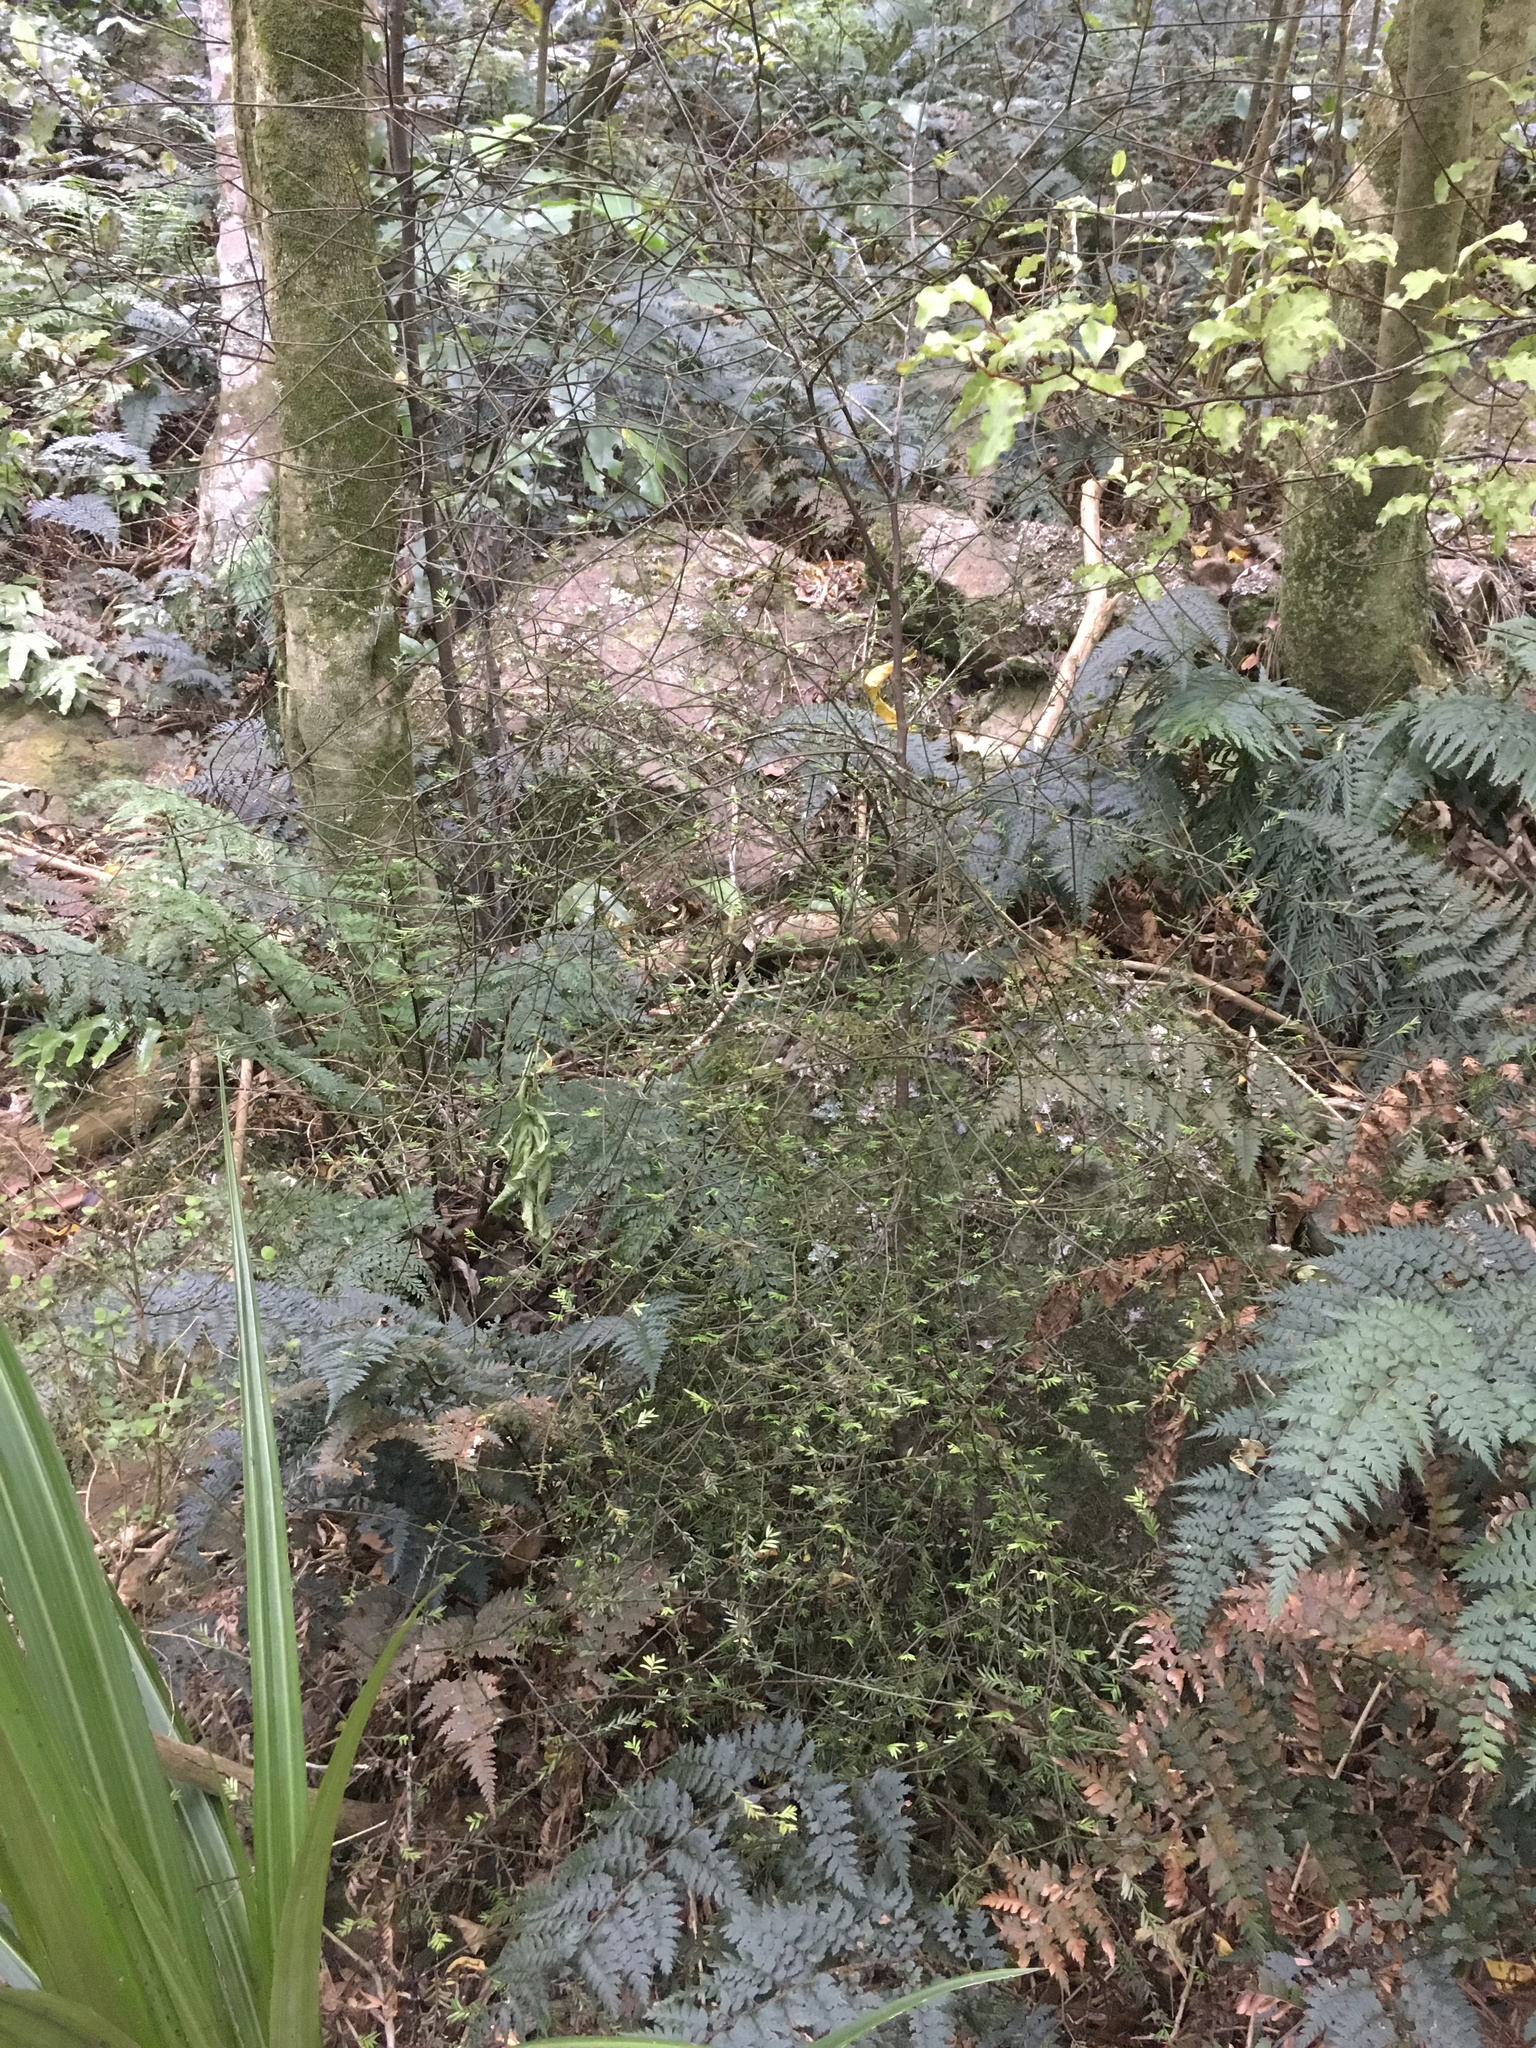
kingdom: Plantae
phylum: Tracheophyta
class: Pinopsida
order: Pinales
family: Podocarpaceae
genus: Prumnopitys
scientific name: Prumnopitys taxifolia
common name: Matai
